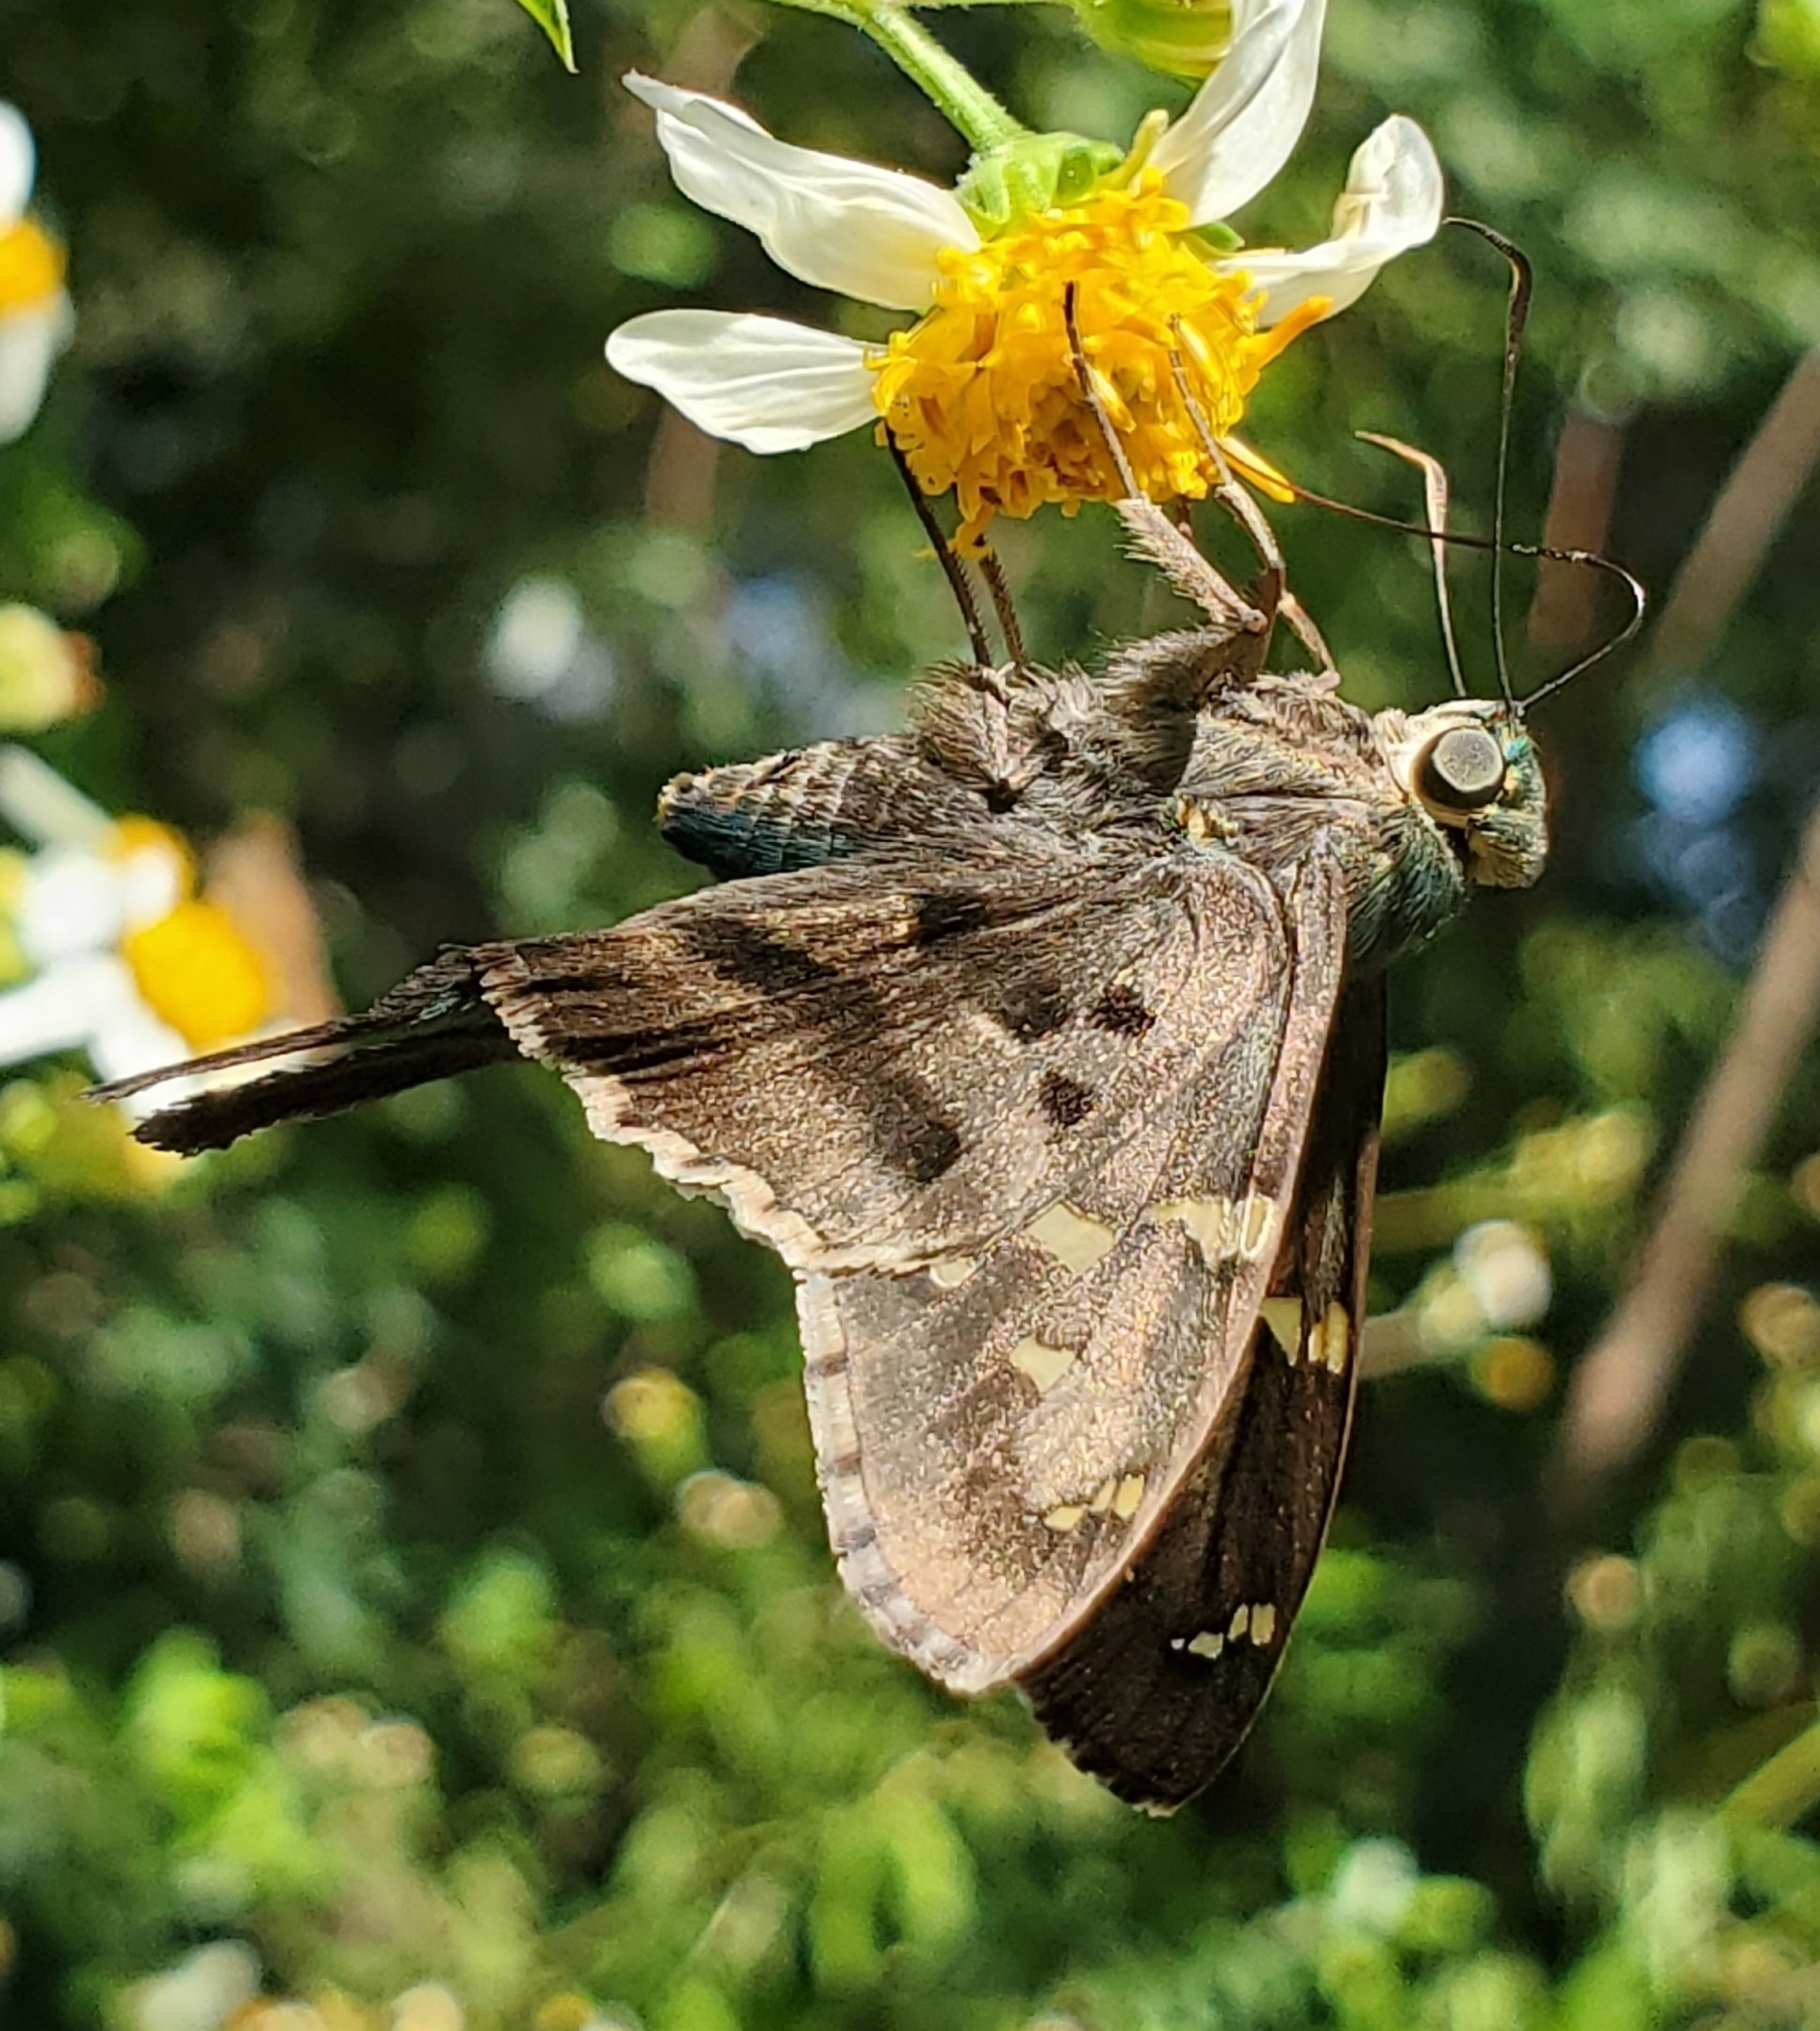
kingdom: Animalia
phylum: Arthropoda
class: Insecta
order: Lepidoptera
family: Hesperiidae
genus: Urbanus
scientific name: Urbanus proteus
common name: Long-tailed skipper
